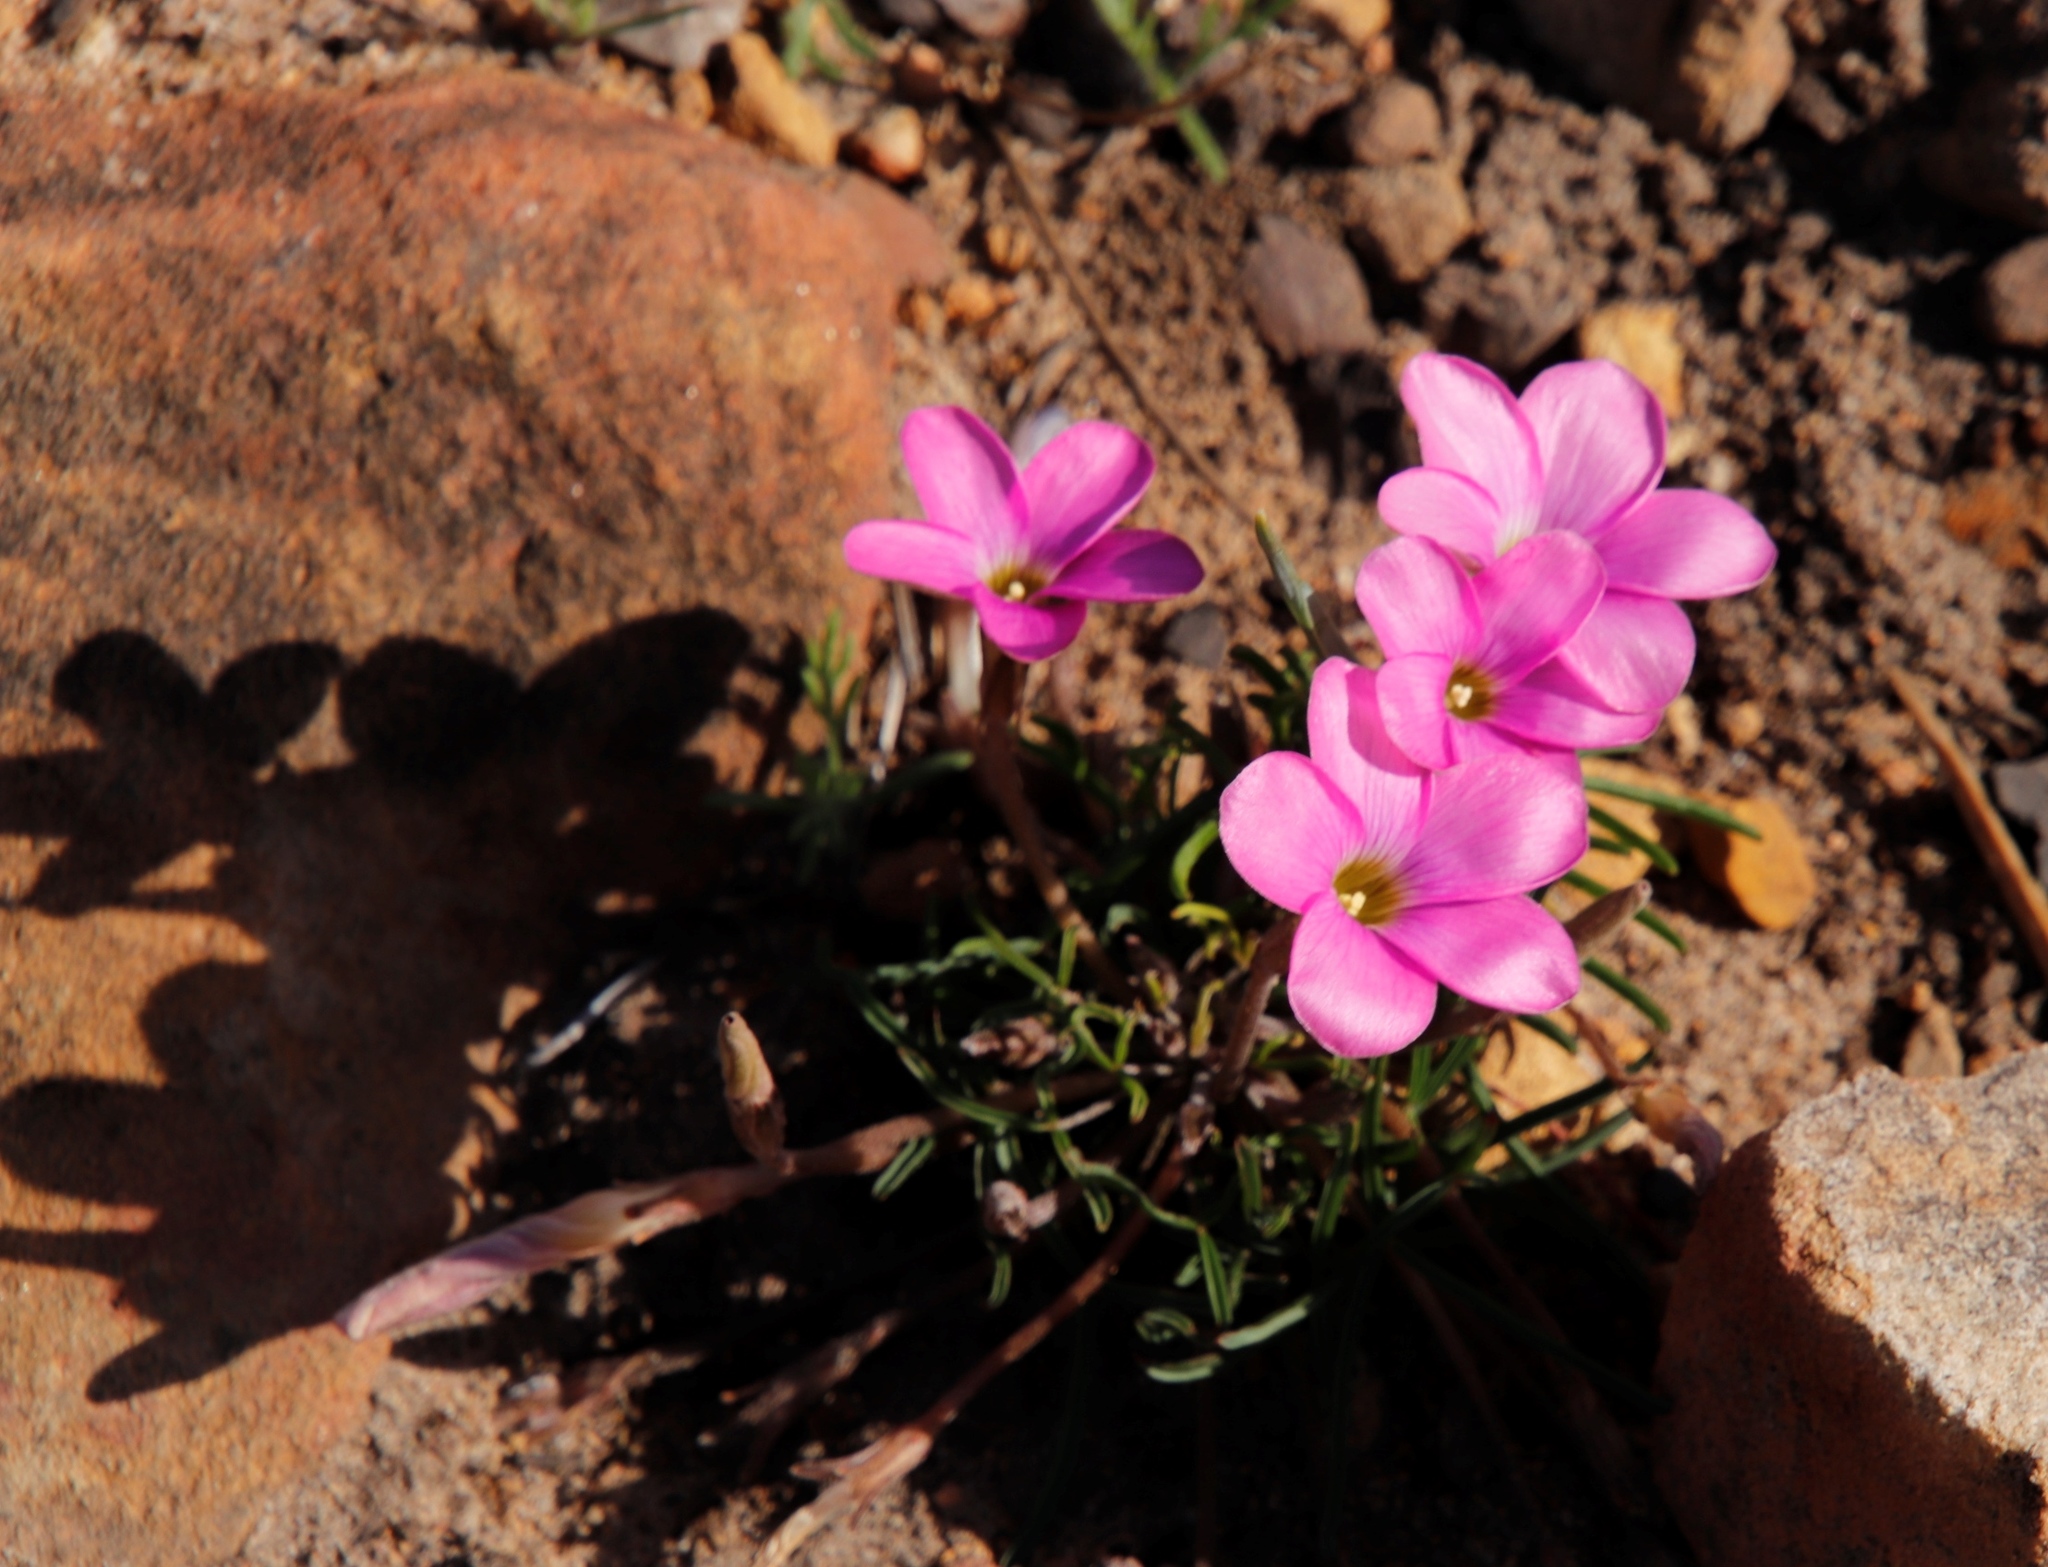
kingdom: Plantae
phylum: Tracheophyta
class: Magnoliopsida
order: Oxalidales
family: Oxalidaceae
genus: Oxalis
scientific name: Oxalis polyphylla
